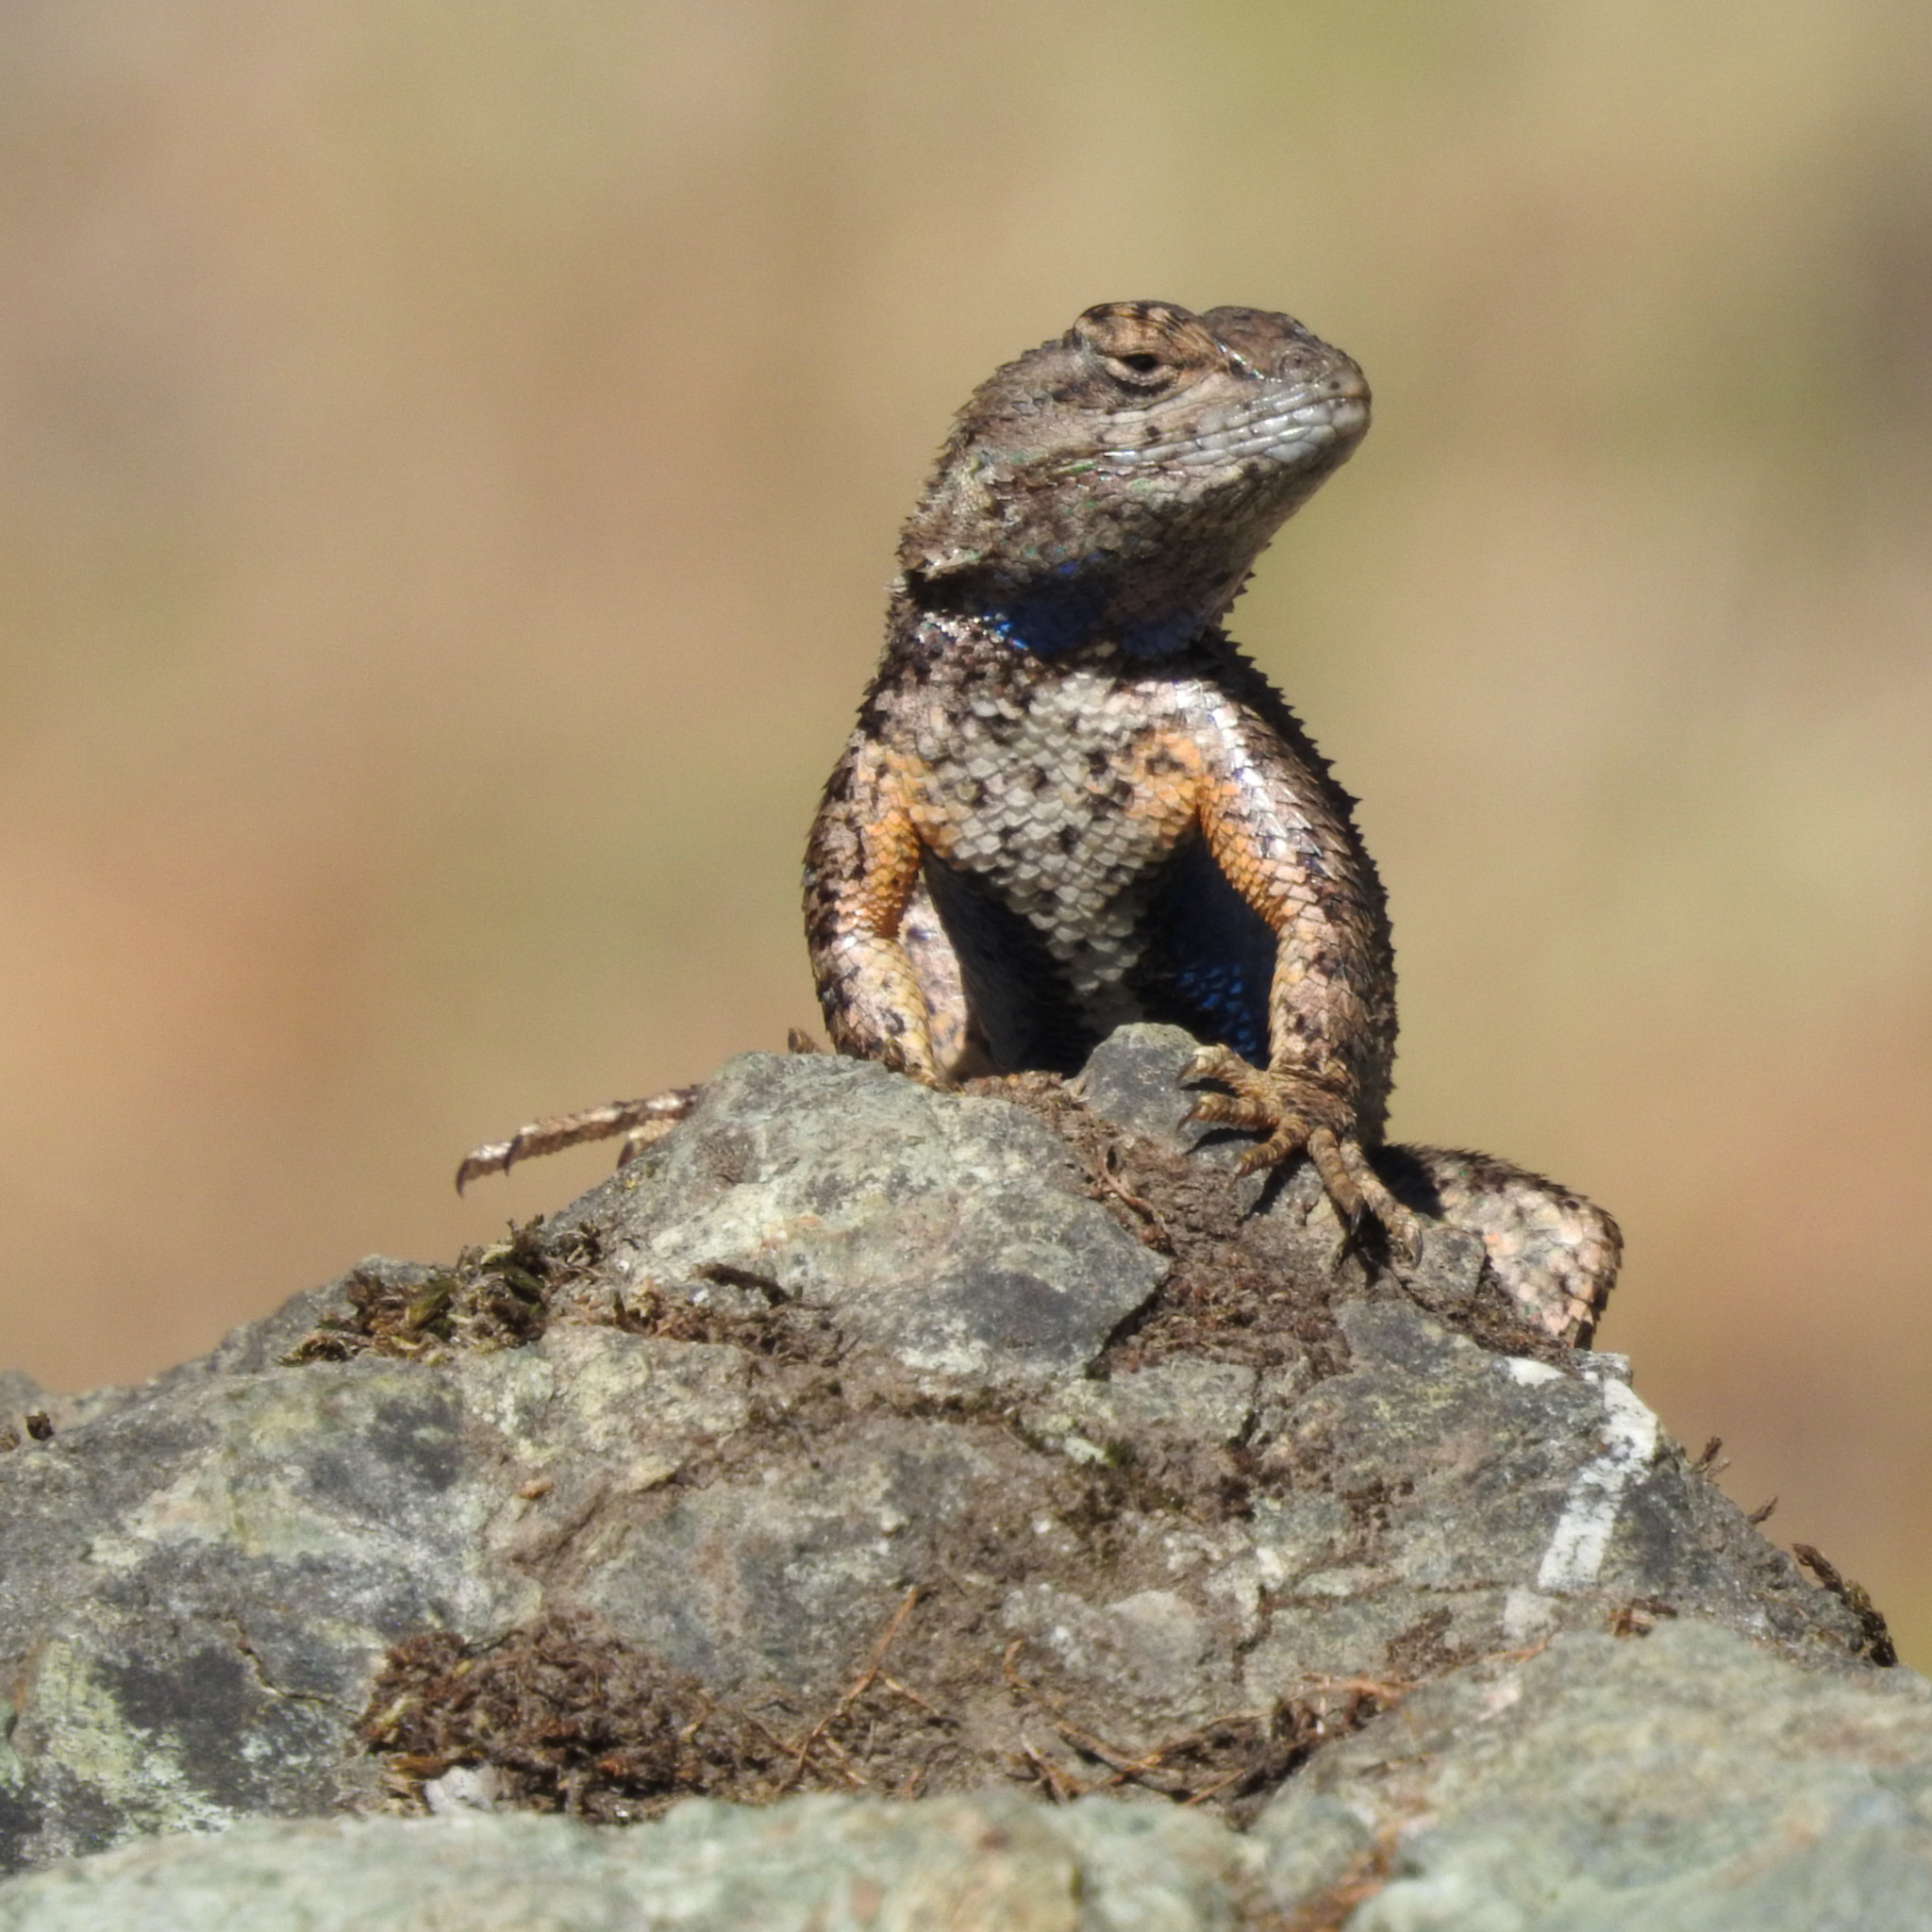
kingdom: Animalia
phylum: Chordata
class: Squamata
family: Phrynosomatidae
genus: Sceloporus
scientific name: Sceloporus occidentalis
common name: Western fence lizard
